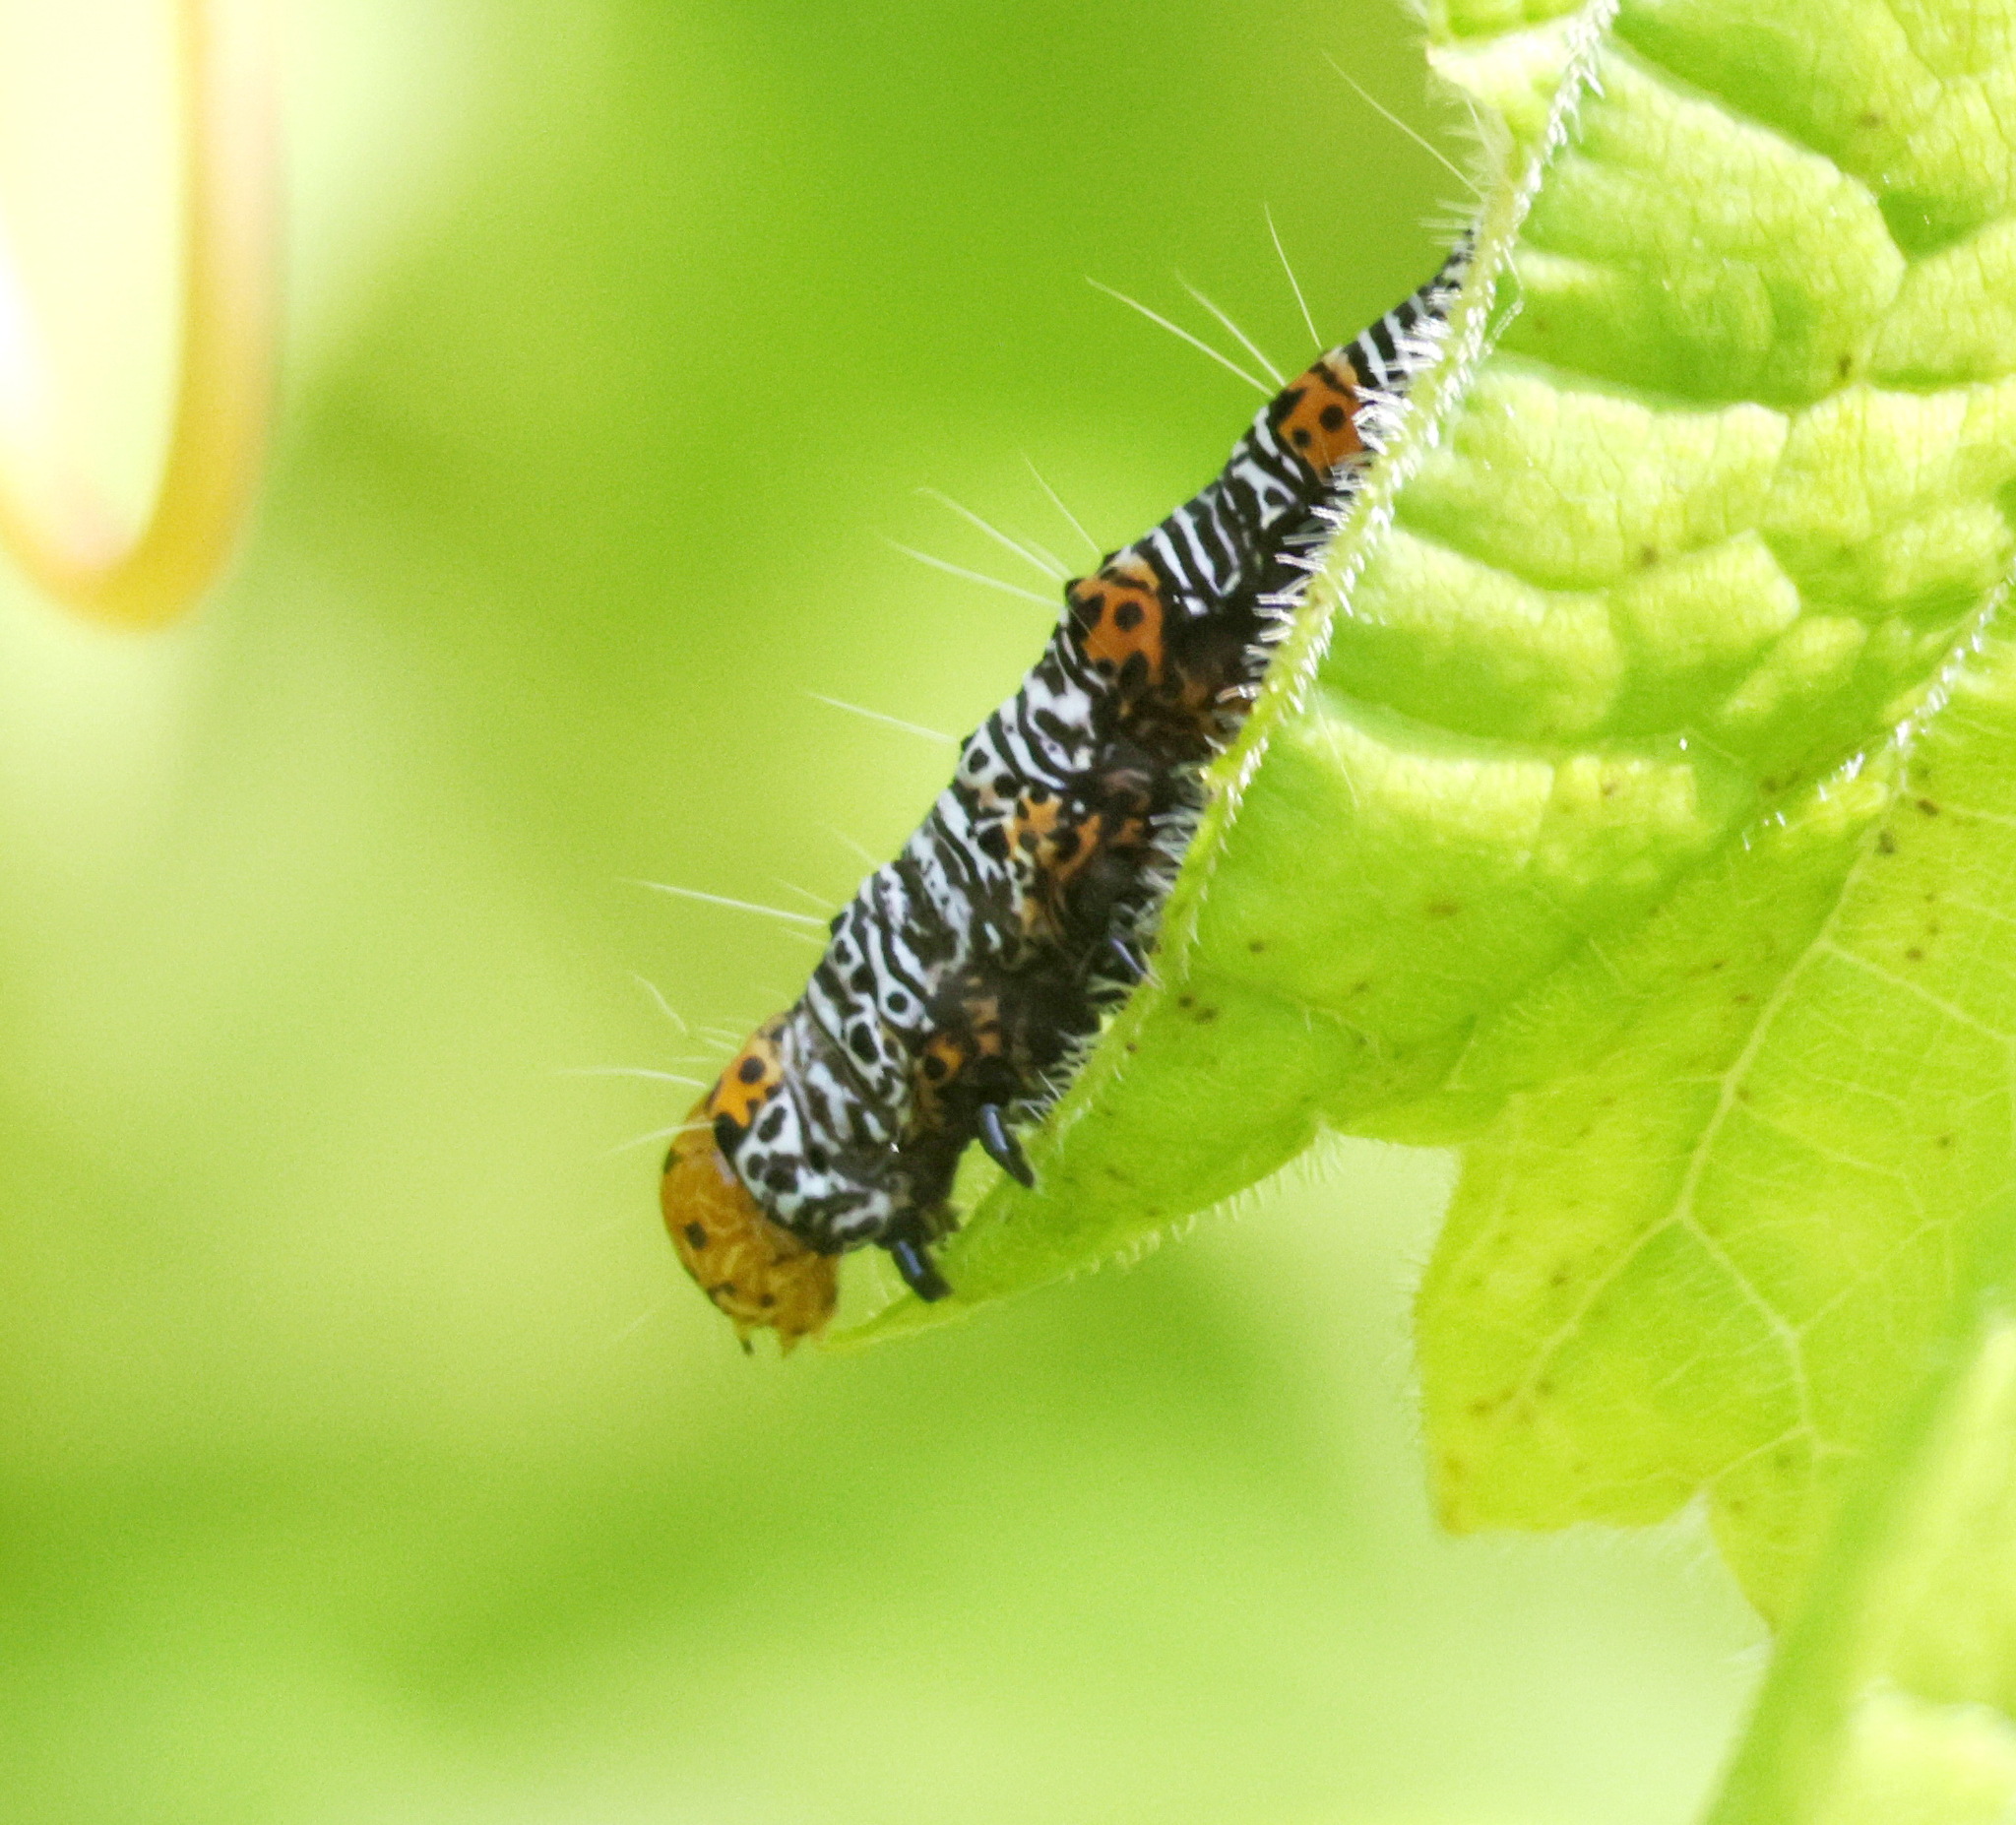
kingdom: Animalia
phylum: Arthropoda
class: Insecta
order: Lepidoptera
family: Noctuidae
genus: Alypia
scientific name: Alypia octomaculata
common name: Eight-spotted forester
